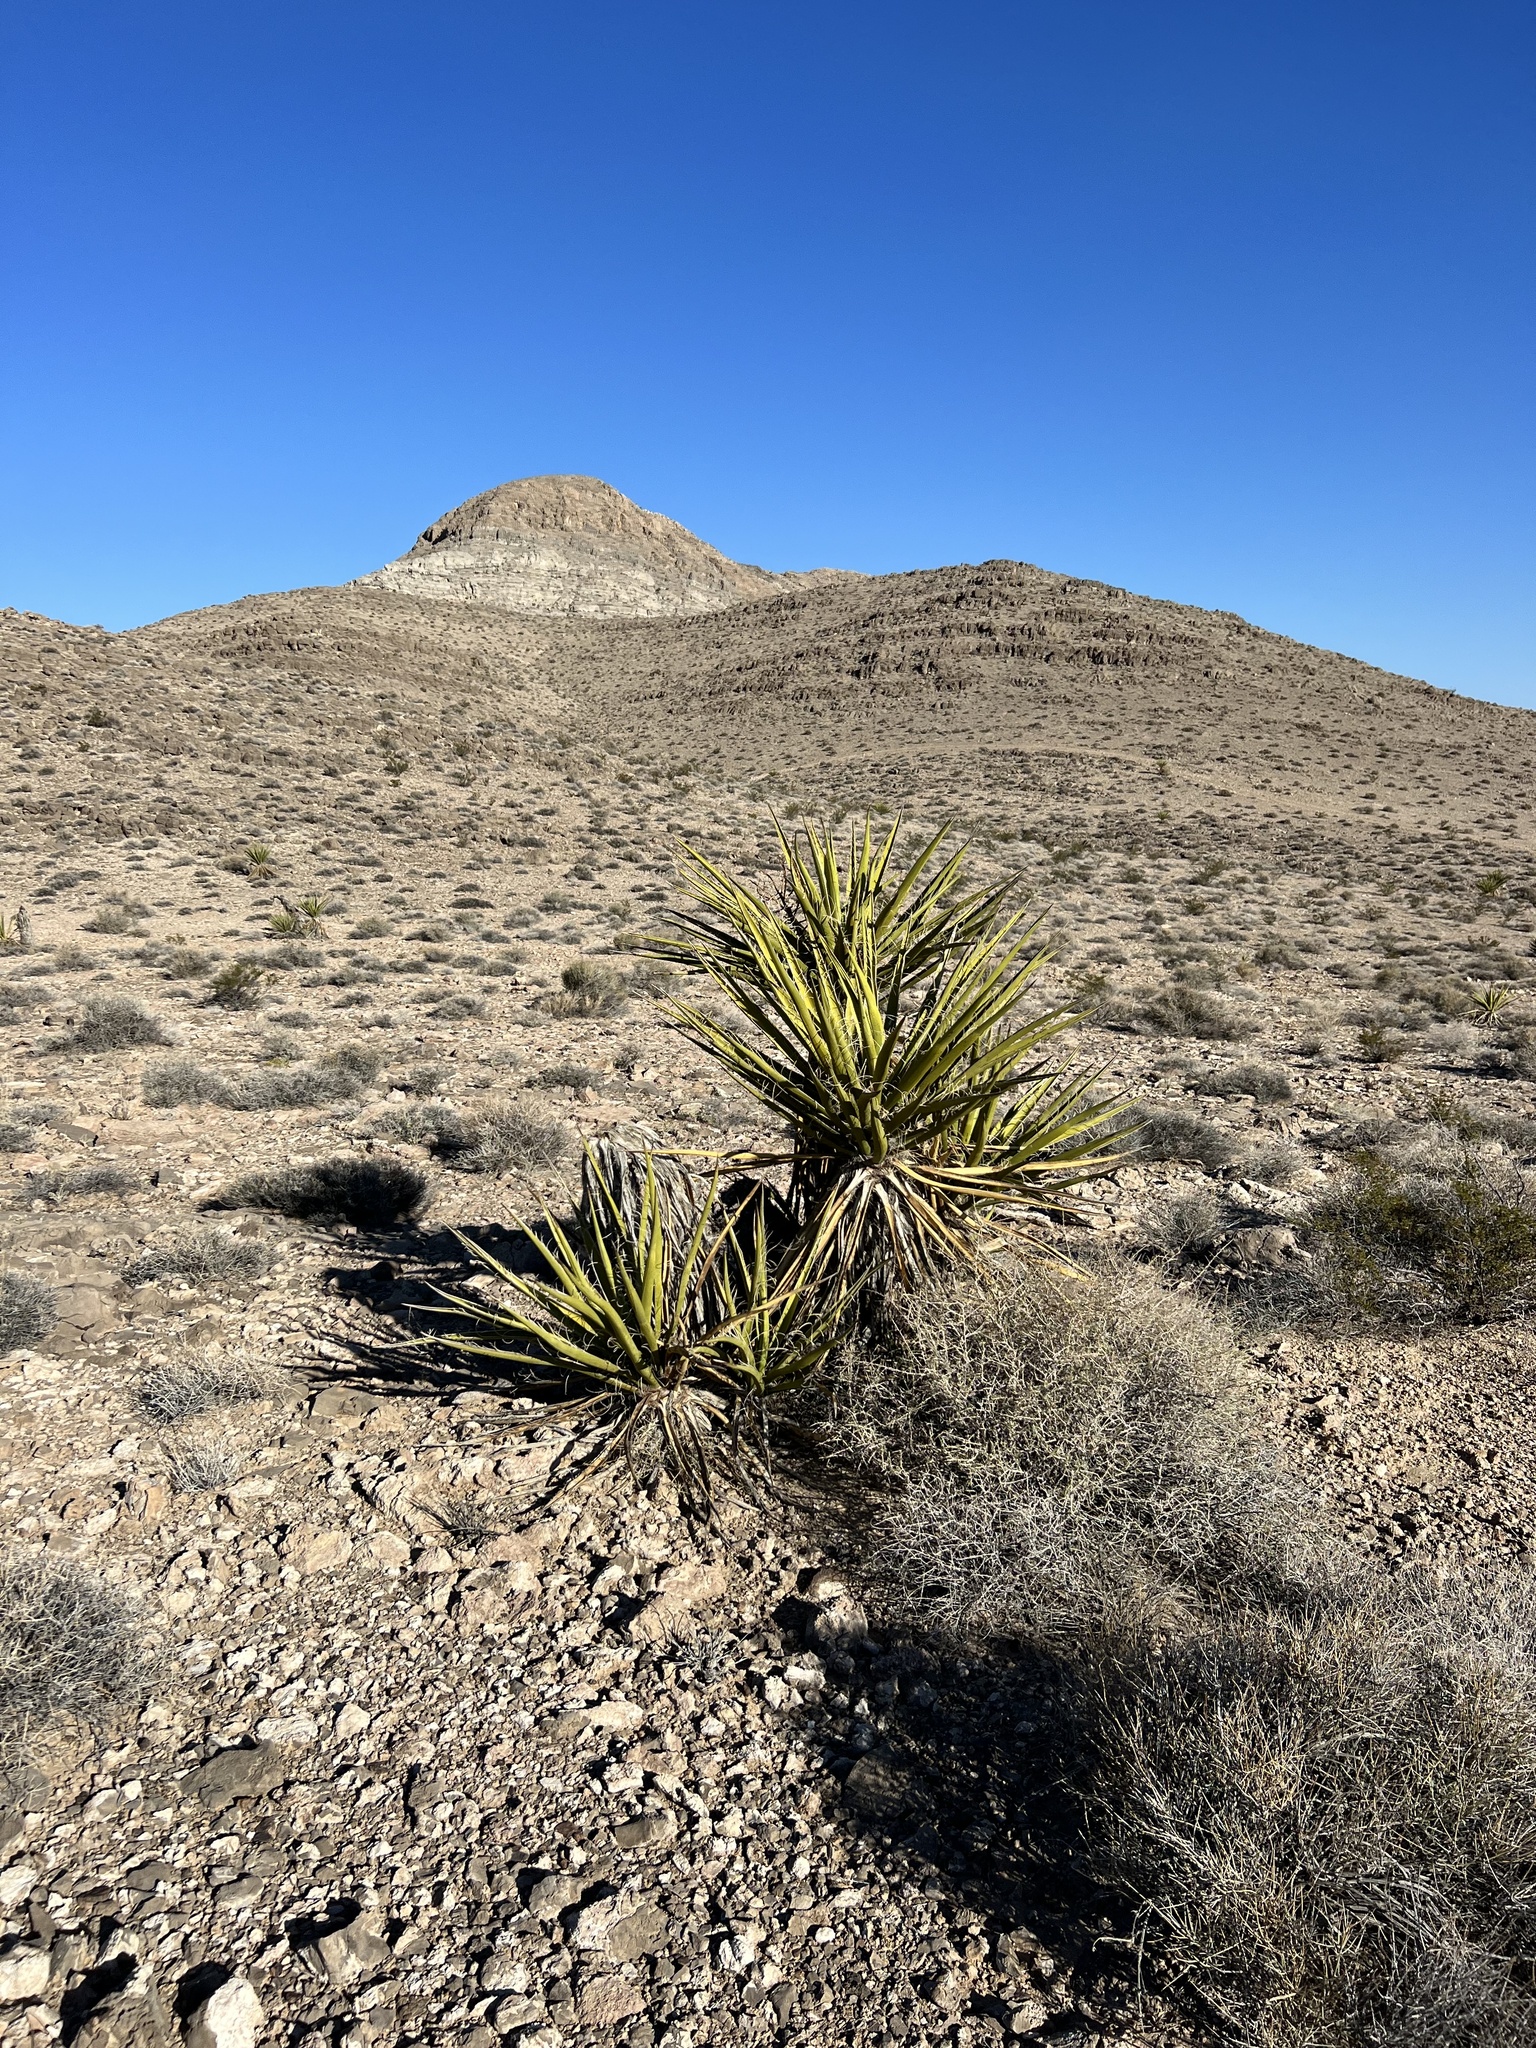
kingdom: Plantae
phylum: Tracheophyta
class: Liliopsida
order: Asparagales
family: Asparagaceae
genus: Yucca
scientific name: Yucca schidigera
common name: Mojave yucca
